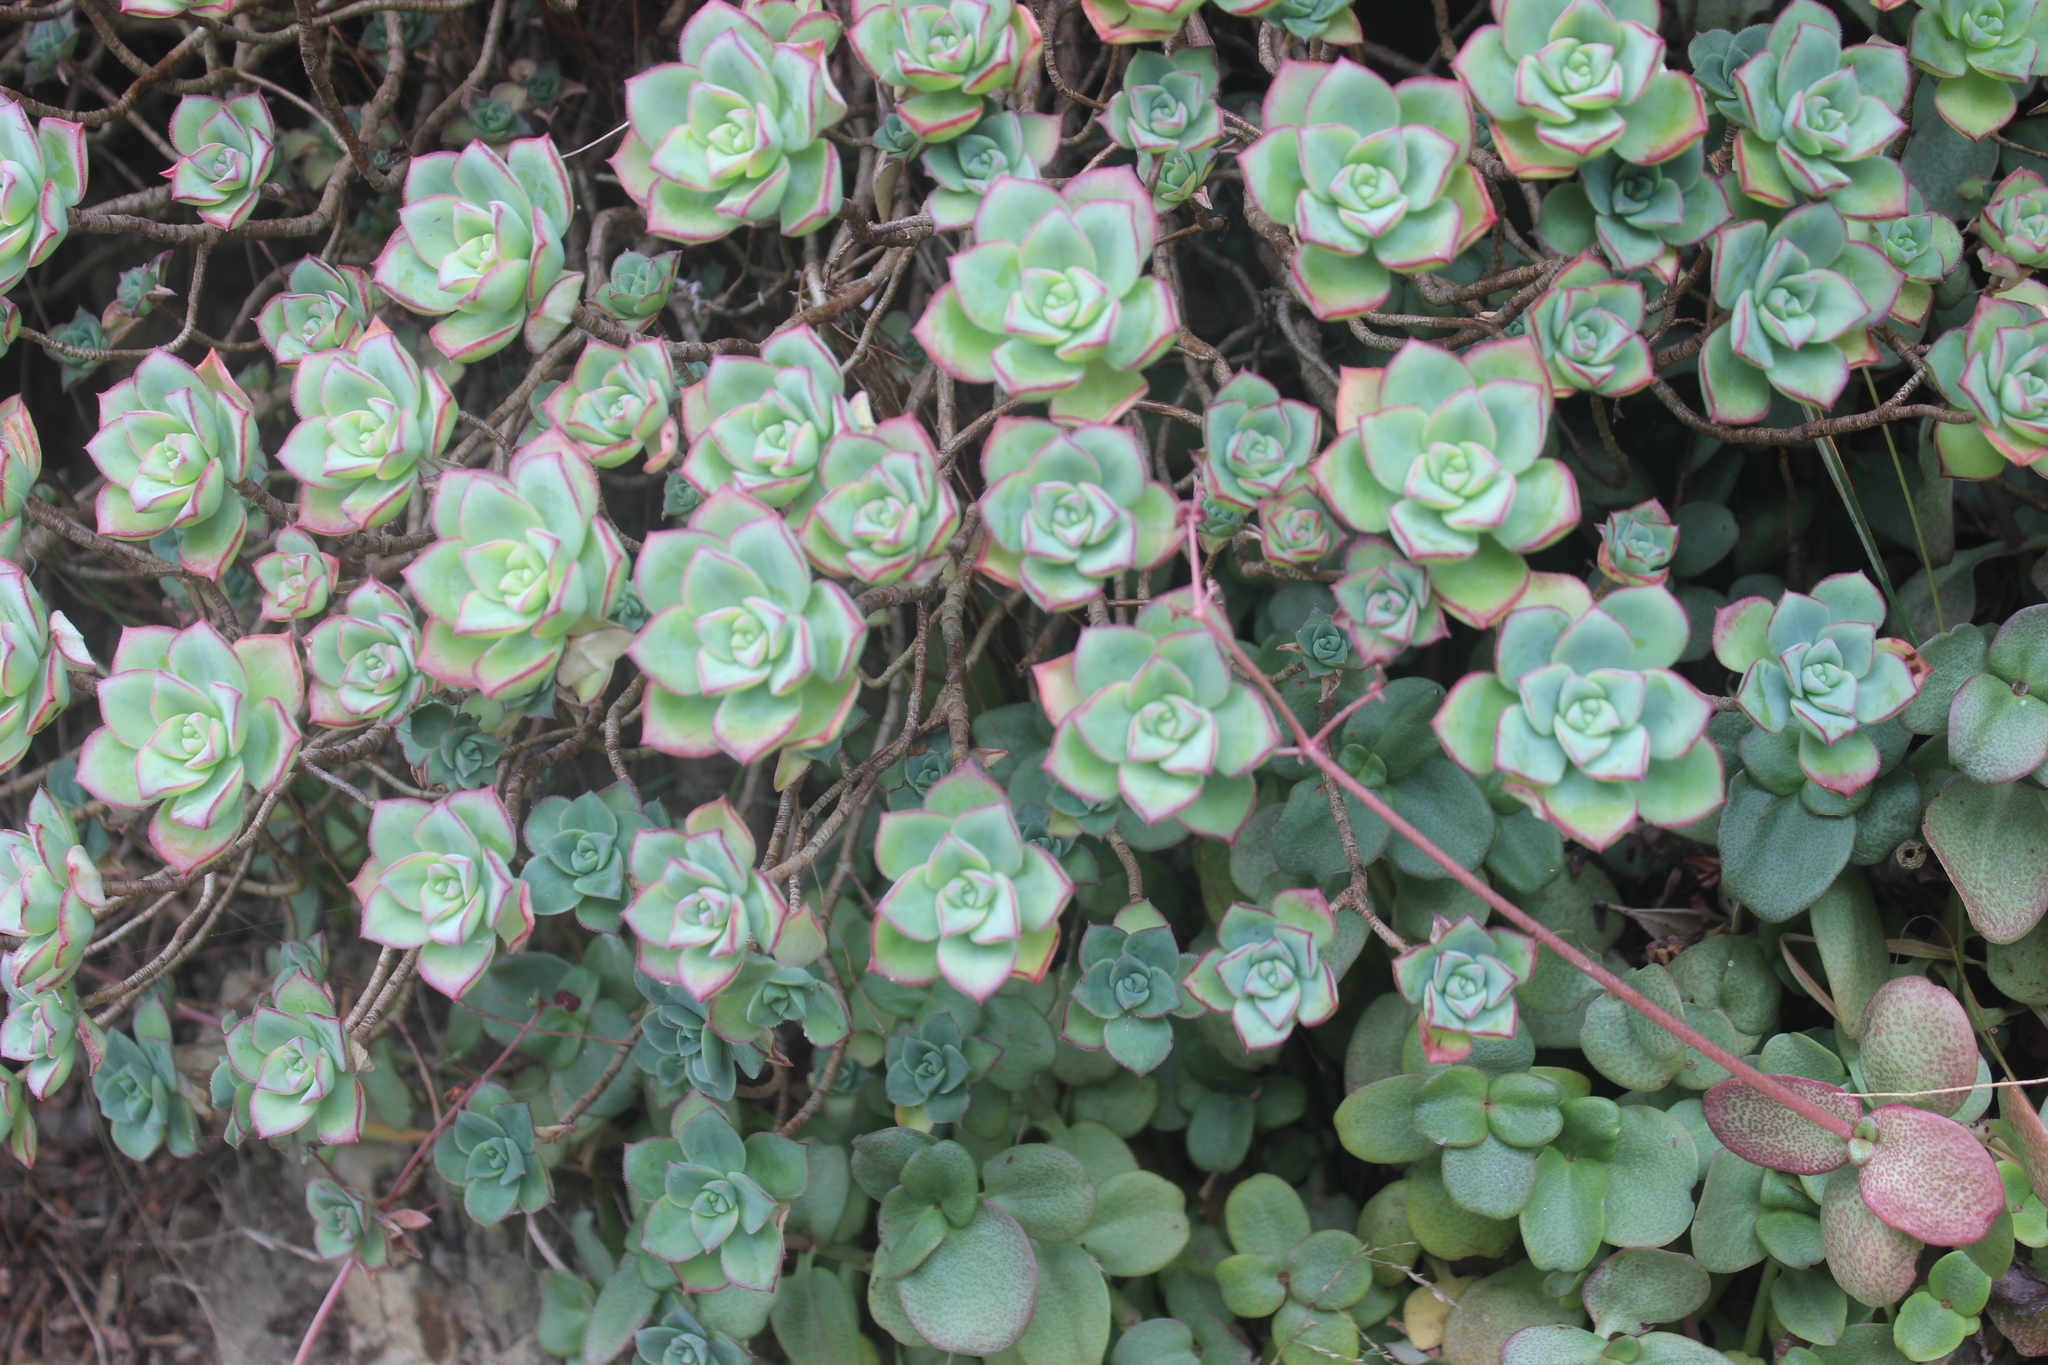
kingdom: Plantae
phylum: Tracheophyta
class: Magnoliopsida
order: Saxifragales
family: Crassulaceae
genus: Aeonium
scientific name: Aeonium haworthii
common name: Haworth's aeonium
